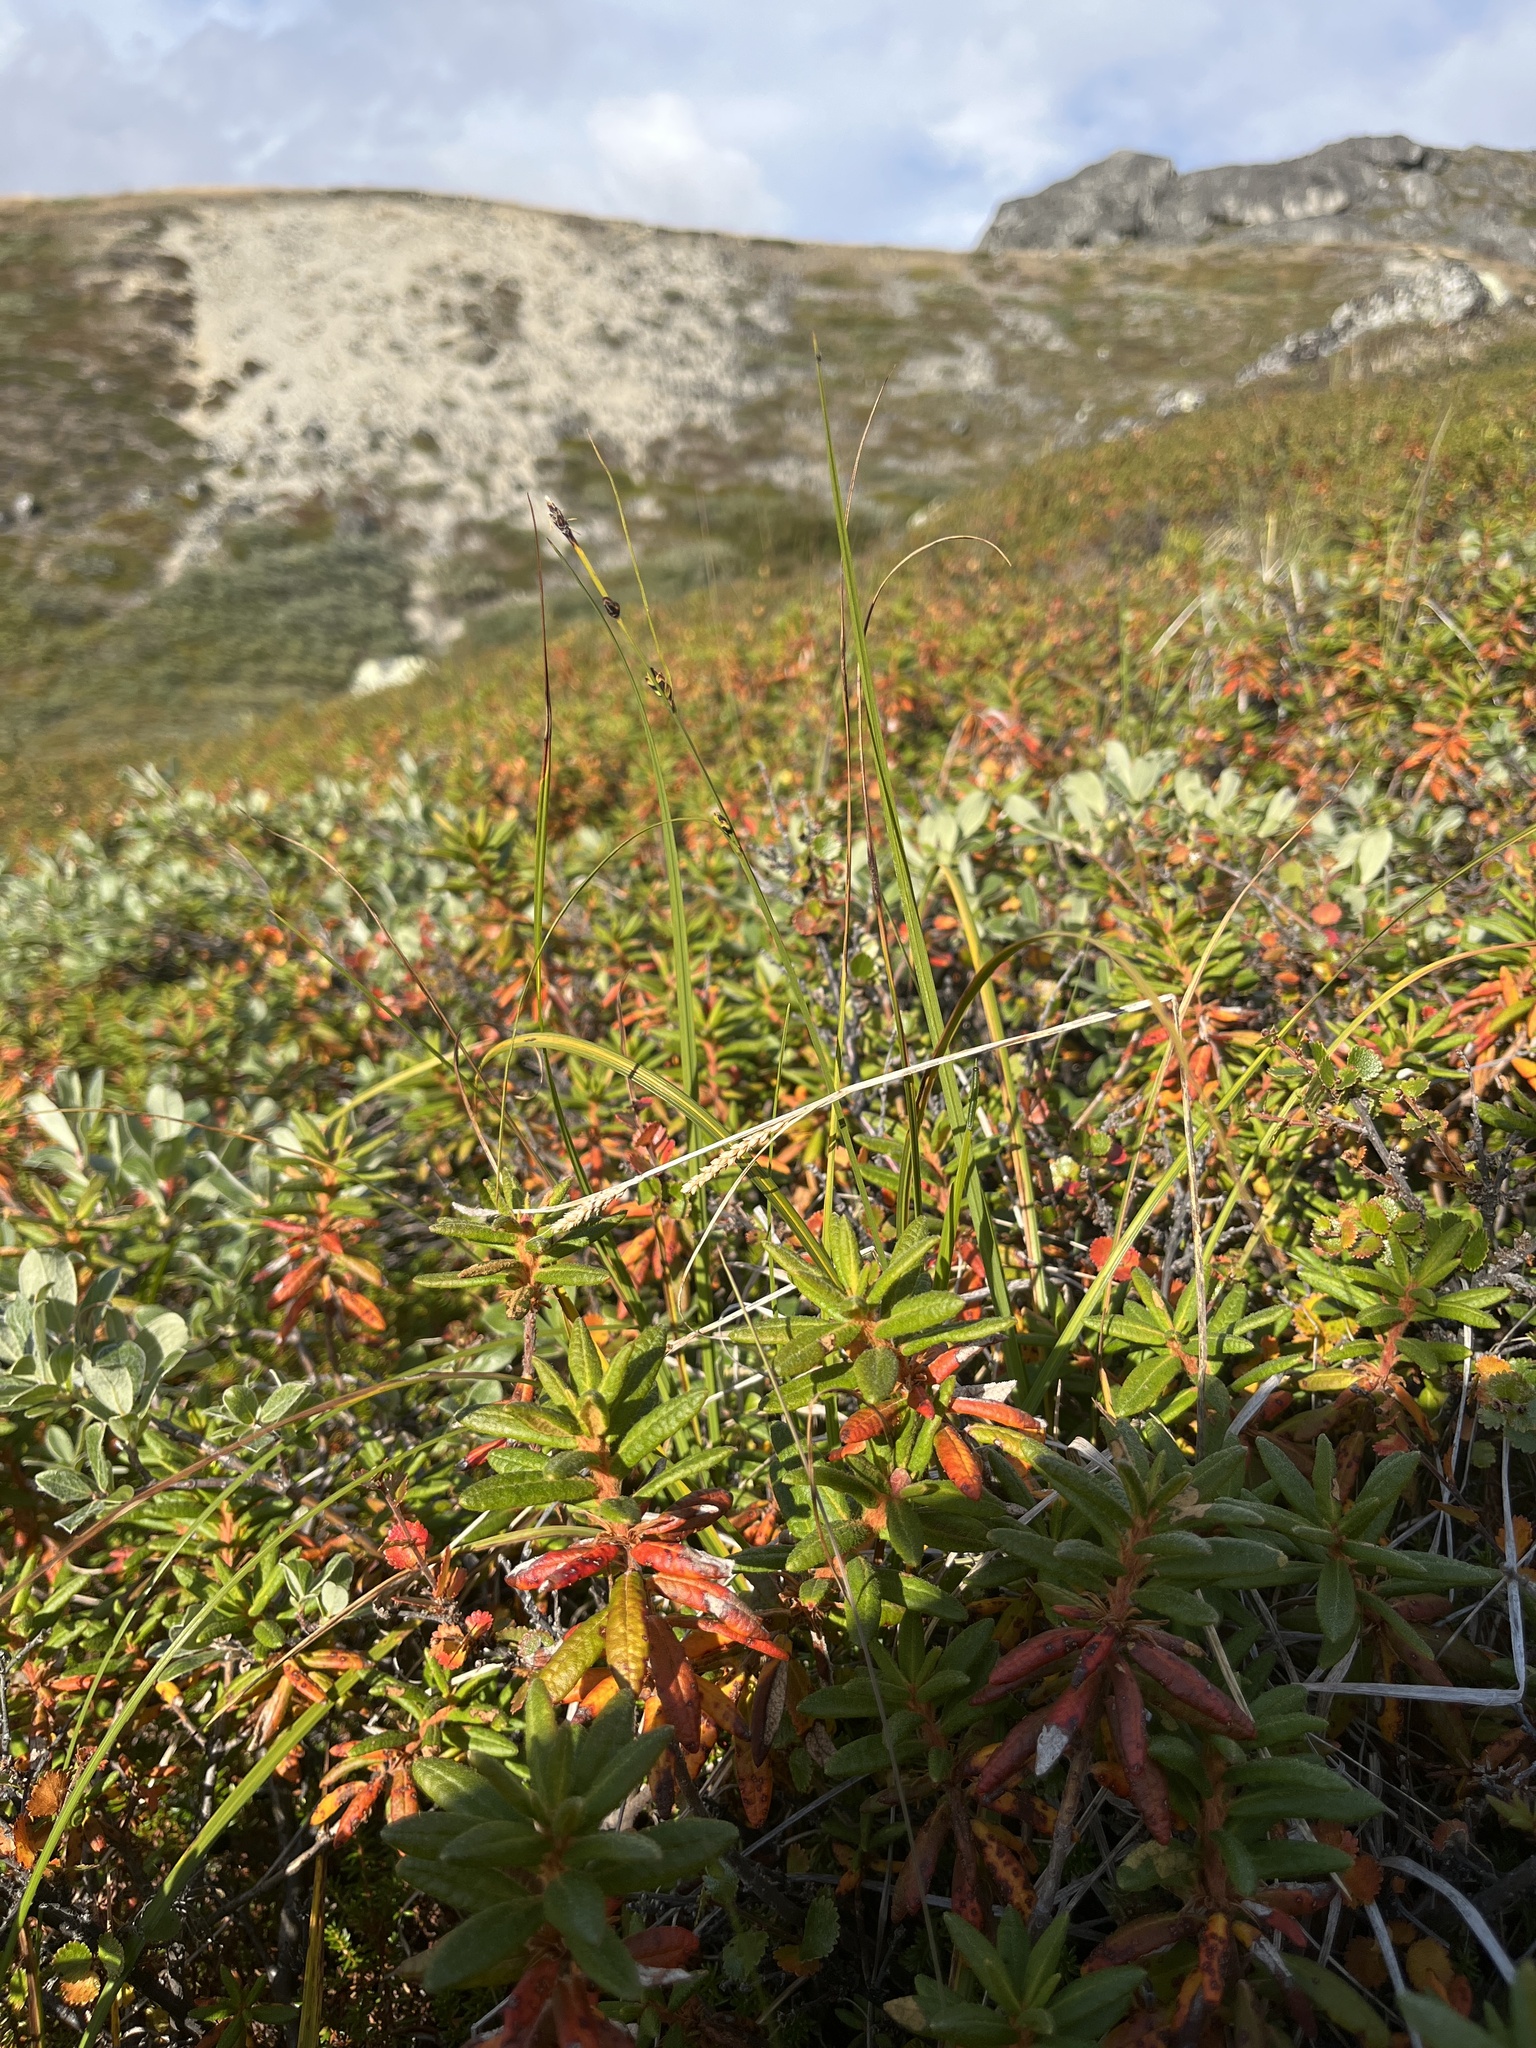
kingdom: Plantae
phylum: Tracheophyta
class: Liliopsida
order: Poales
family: Cyperaceae
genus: Carex
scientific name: Carex bigelowii
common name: Stiff sedge
